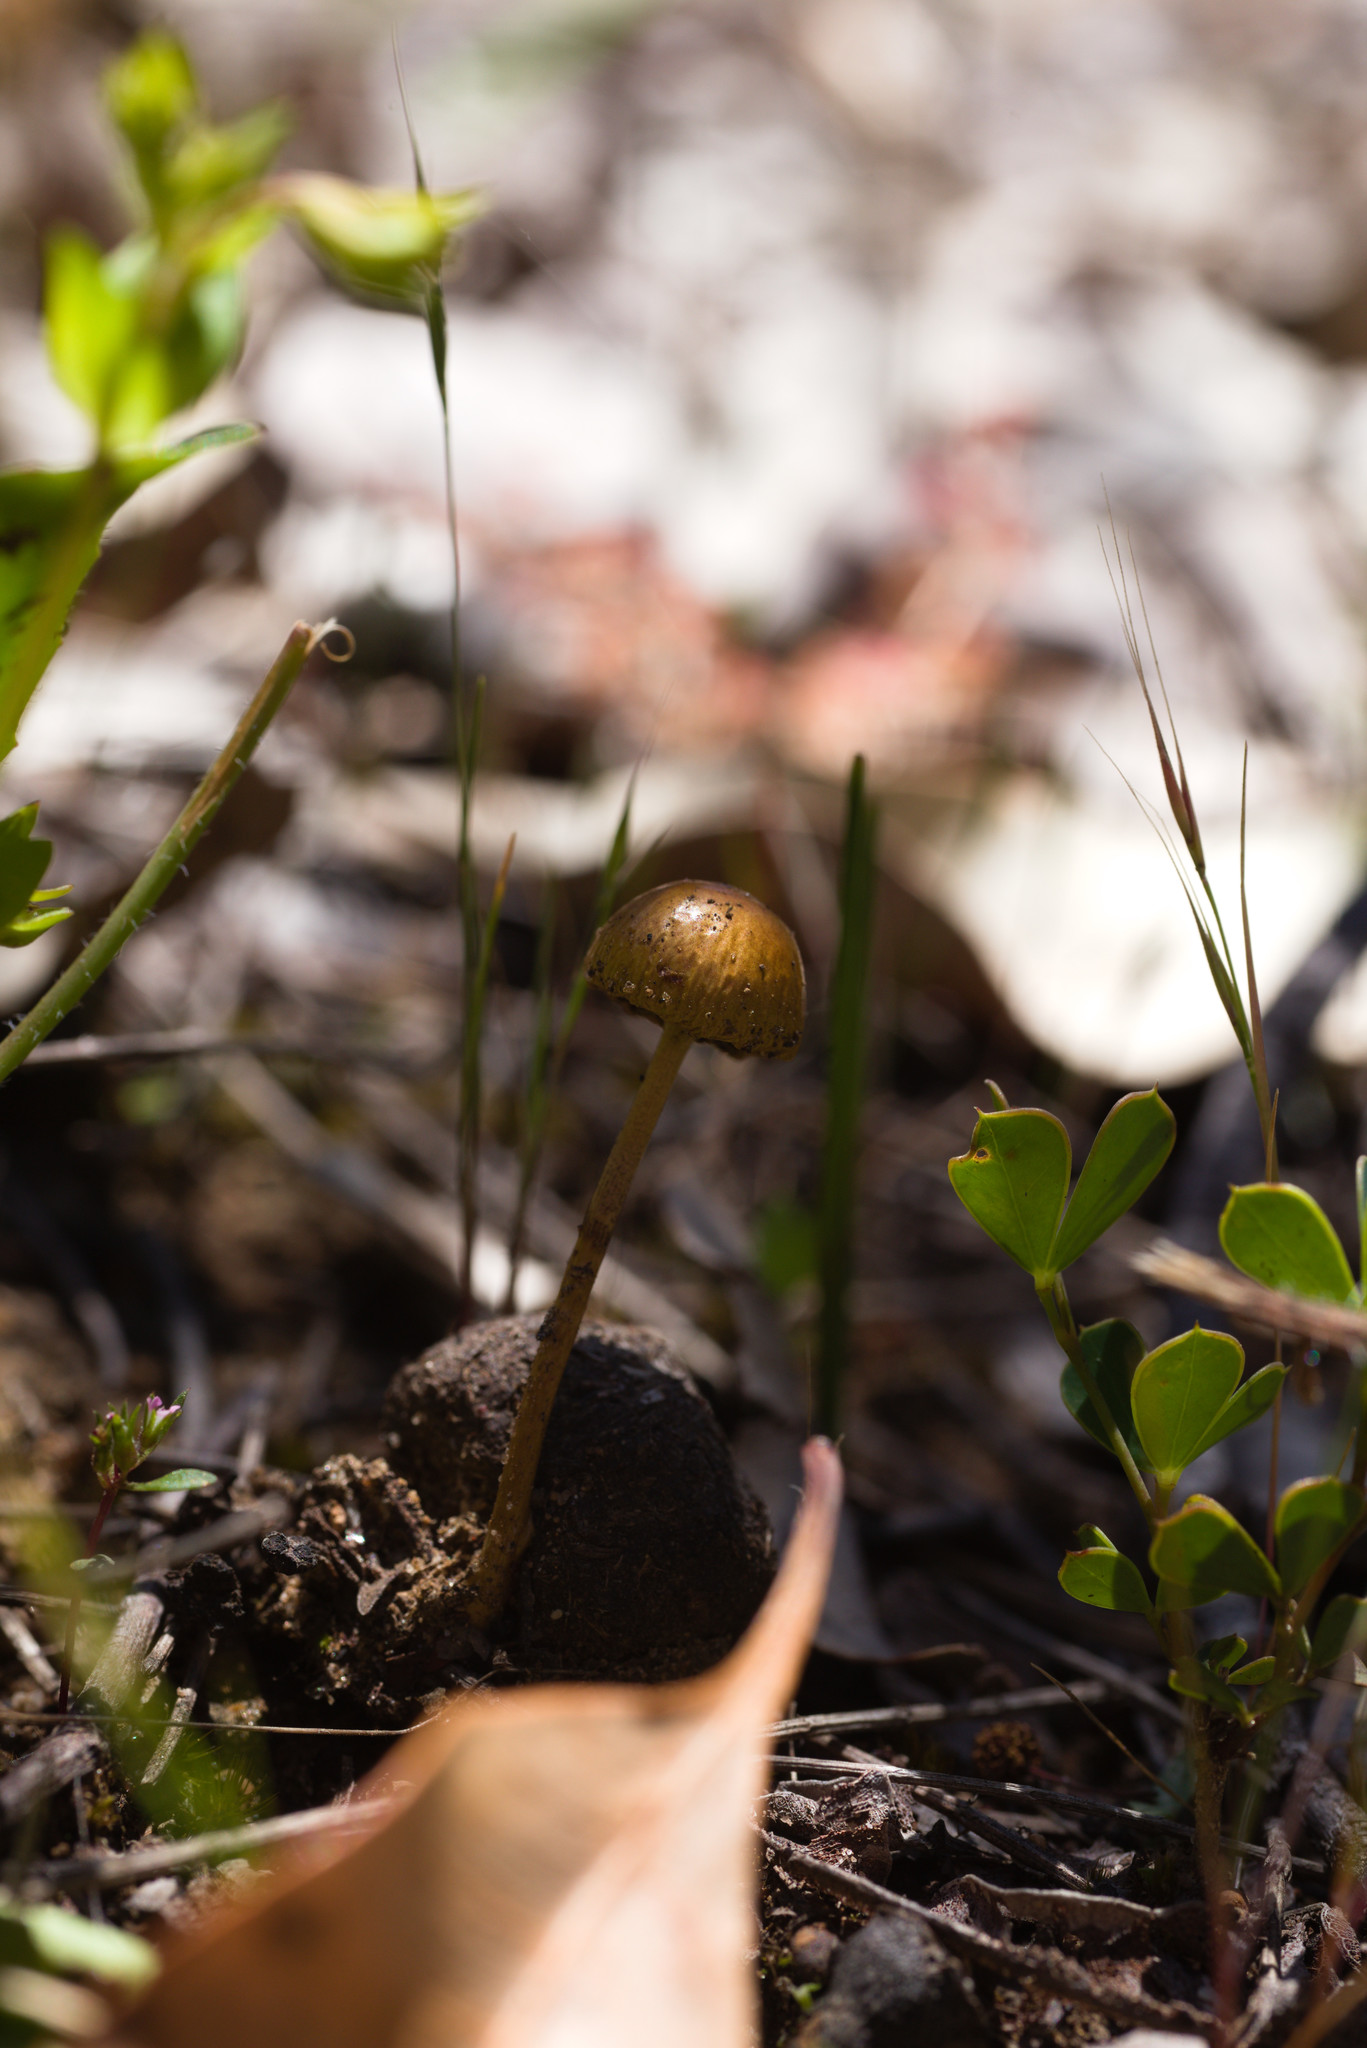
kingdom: Fungi
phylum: Basidiomycota
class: Agaricomycetes
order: Agaricales
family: Strophariaceae
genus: Protostropharia
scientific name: Protostropharia semiglobata
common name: Dung roundhead
